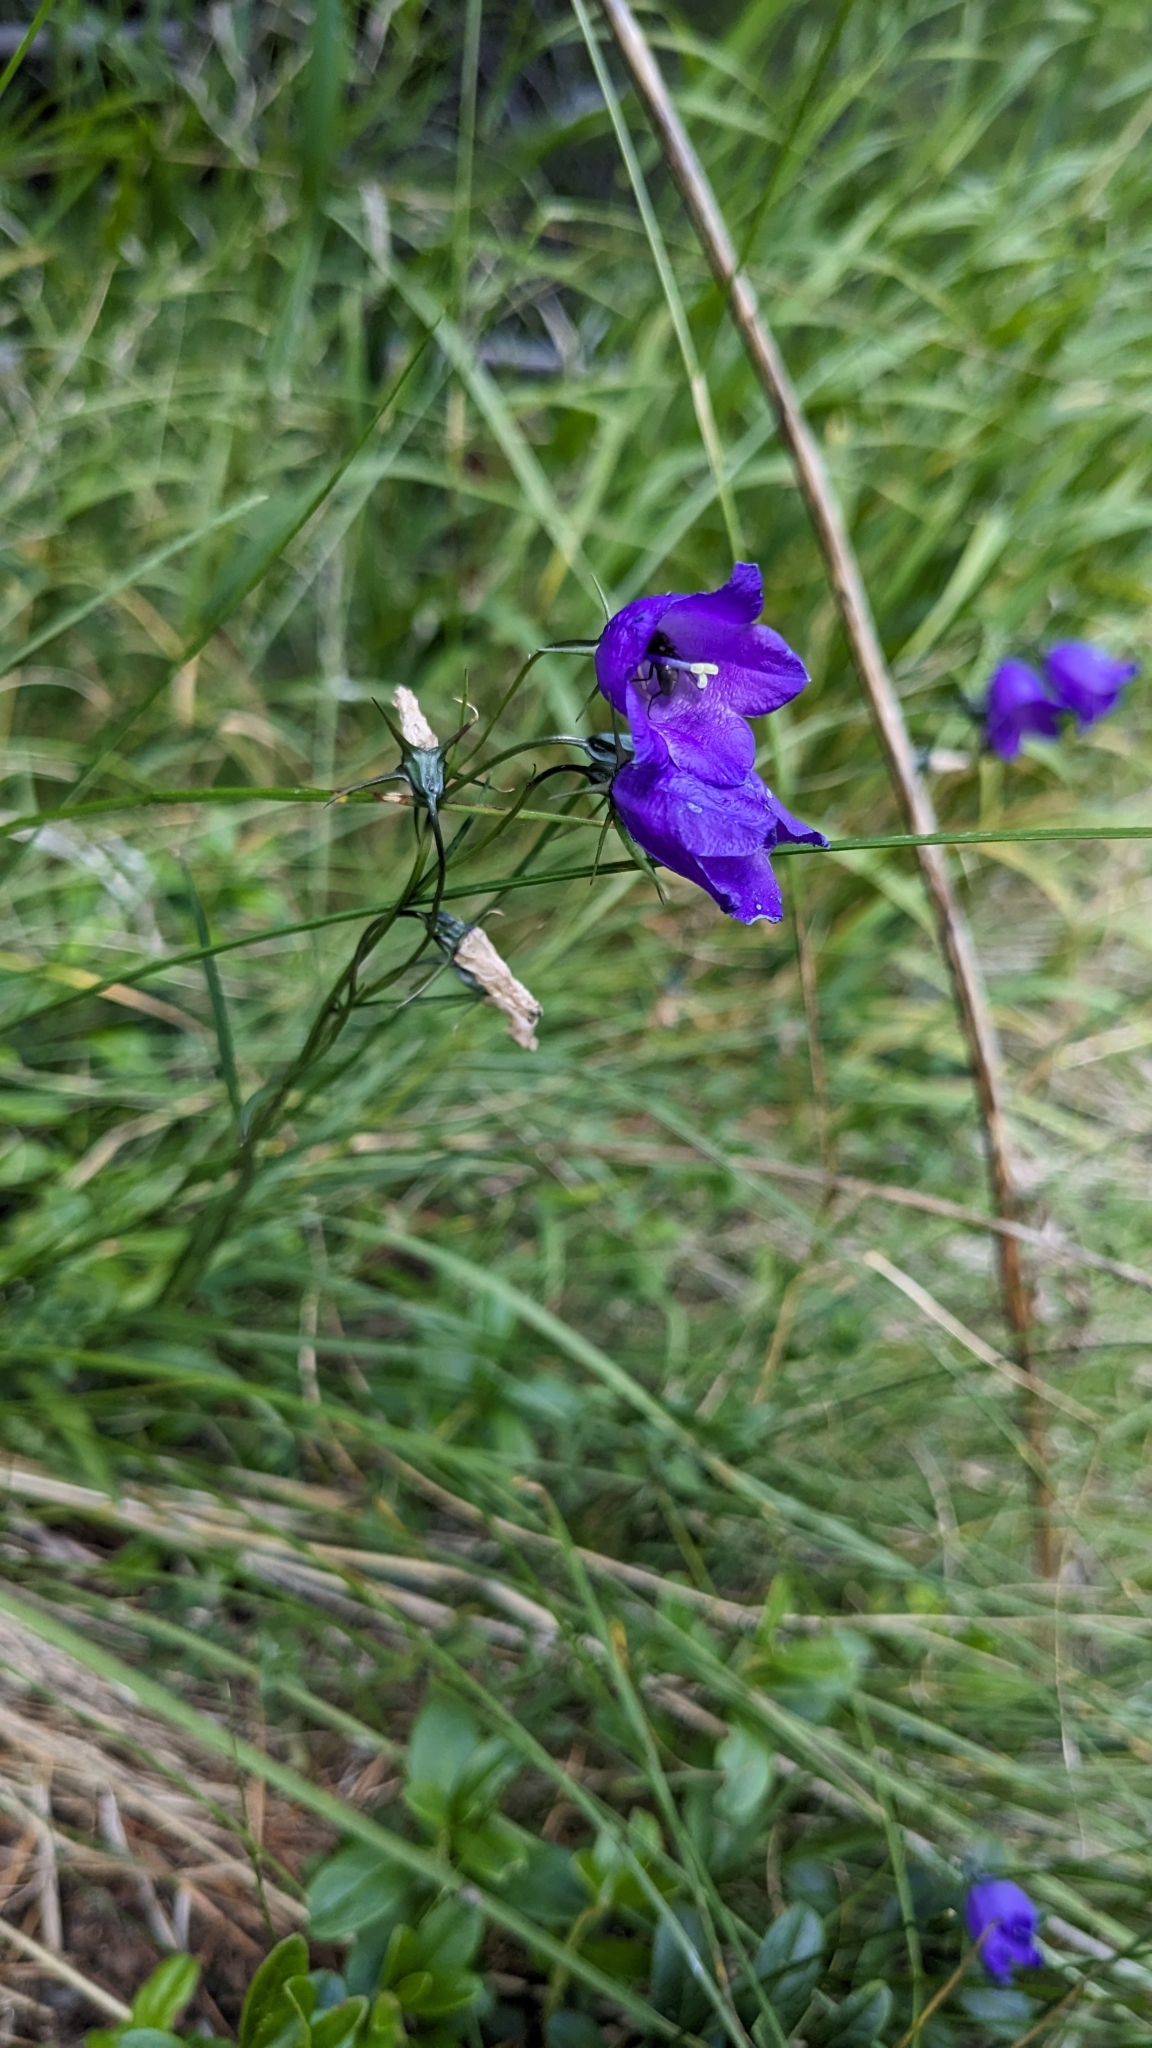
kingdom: Plantae
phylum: Tracheophyta
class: Magnoliopsida
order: Asterales
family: Campanulaceae
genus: Campanula
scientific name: Campanula scheuchzeri
